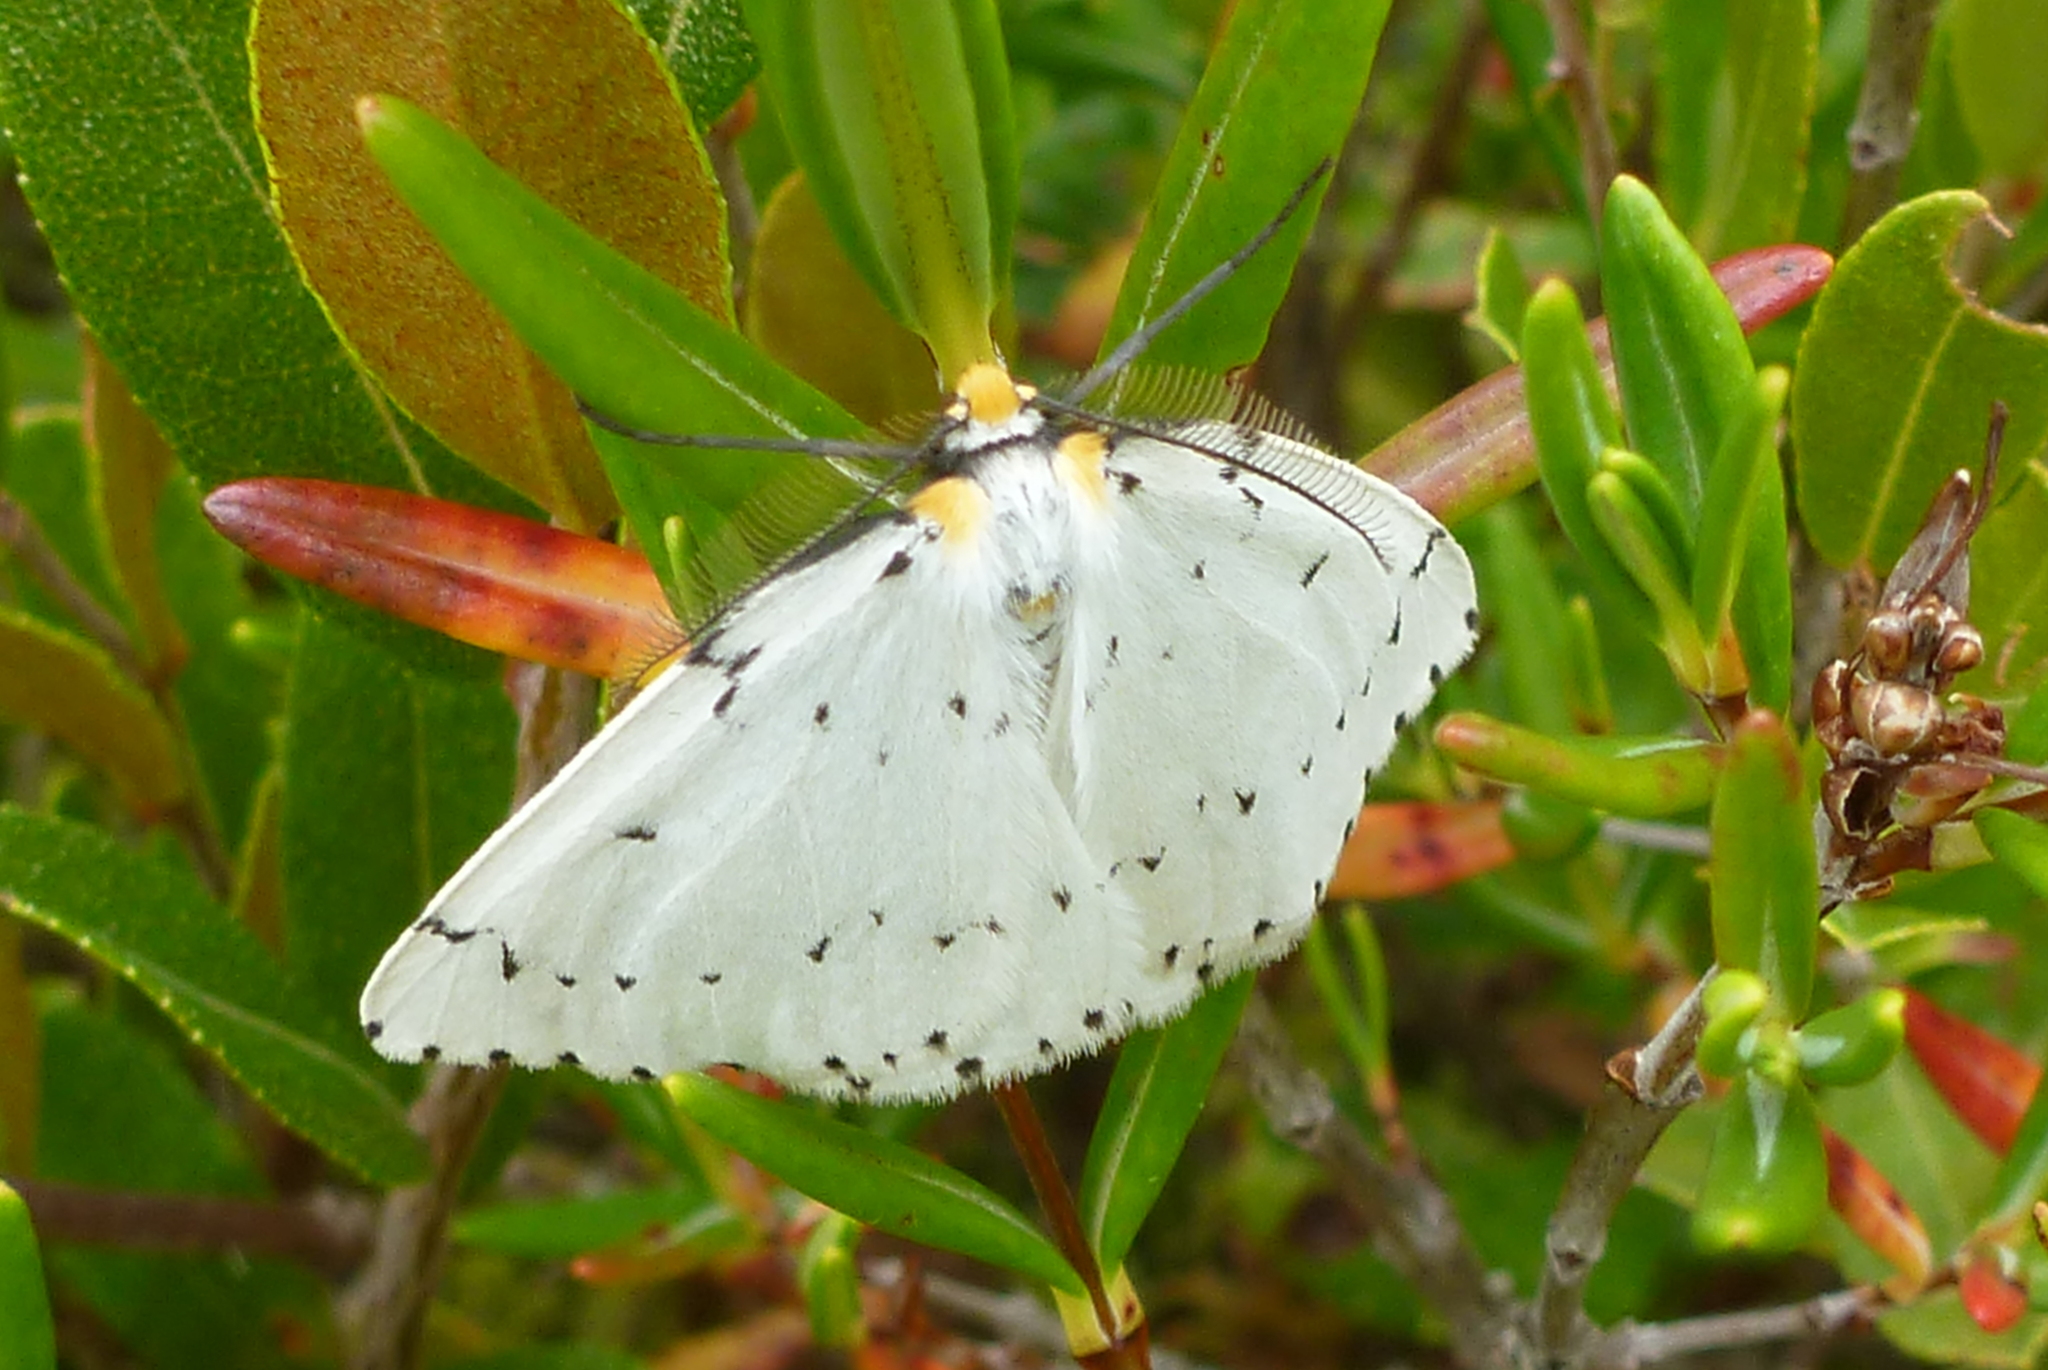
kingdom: Animalia
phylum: Arthropoda
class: Insecta
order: Lepidoptera
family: Geometridae
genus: Cingilia
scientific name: Cingilia catenaria
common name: Chain-dotted geometer
